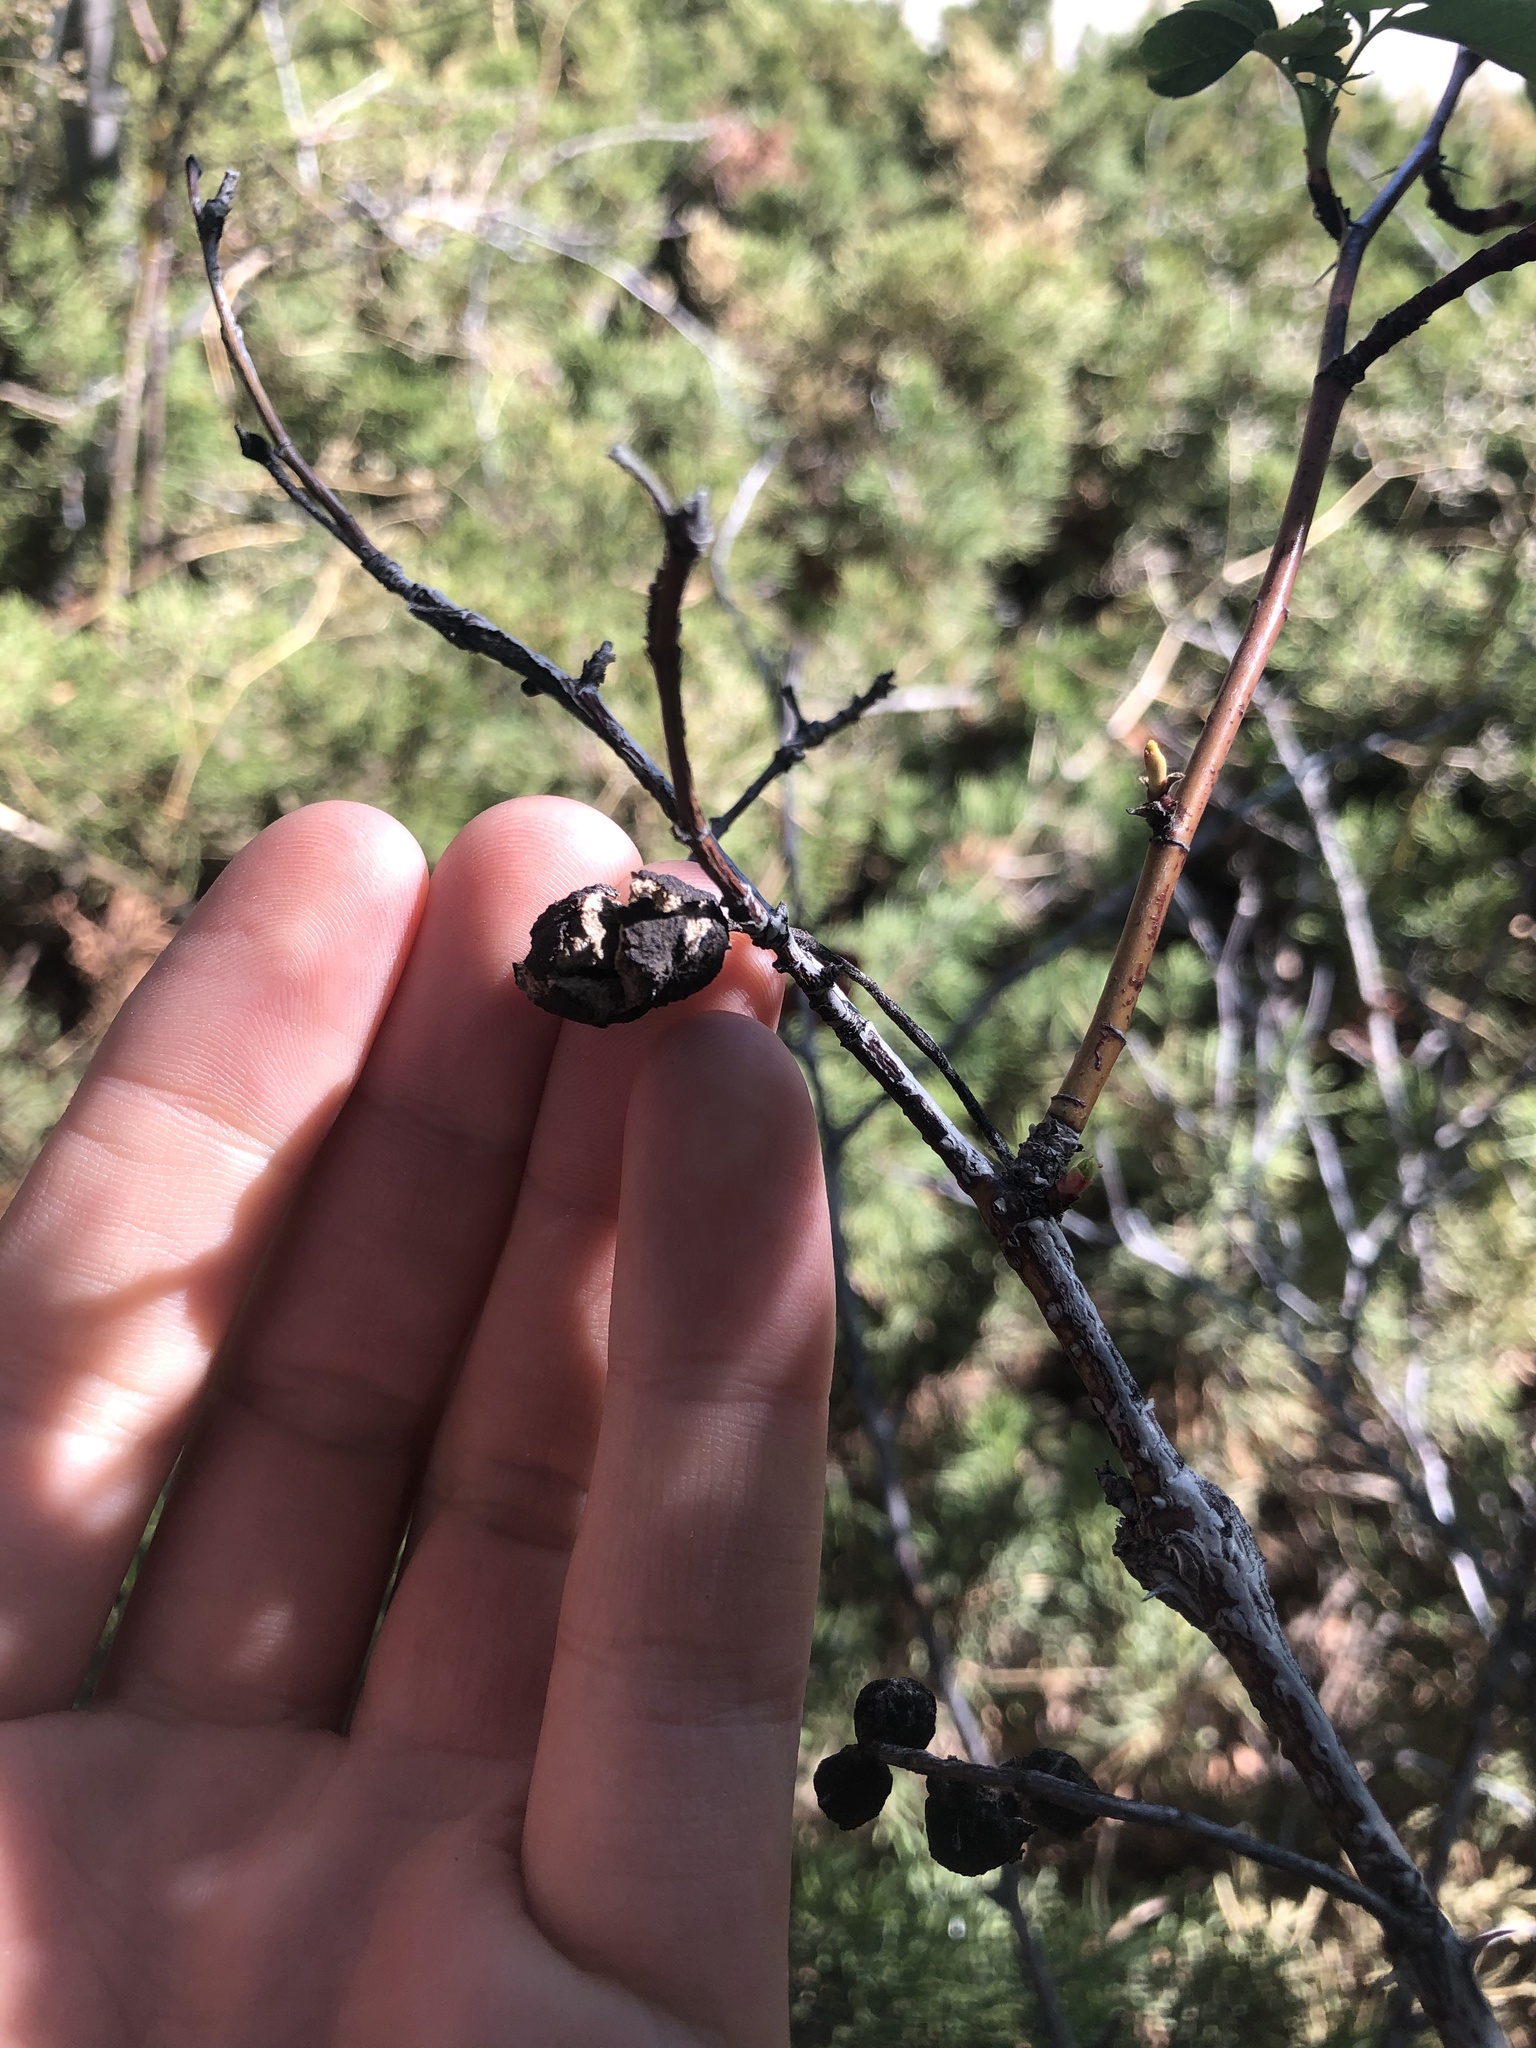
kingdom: Animalia
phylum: Arthropoda
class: Insecta
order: Hymenoptera
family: Cynipidae
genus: Diplolepis
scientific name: Diplolepis variabilis
